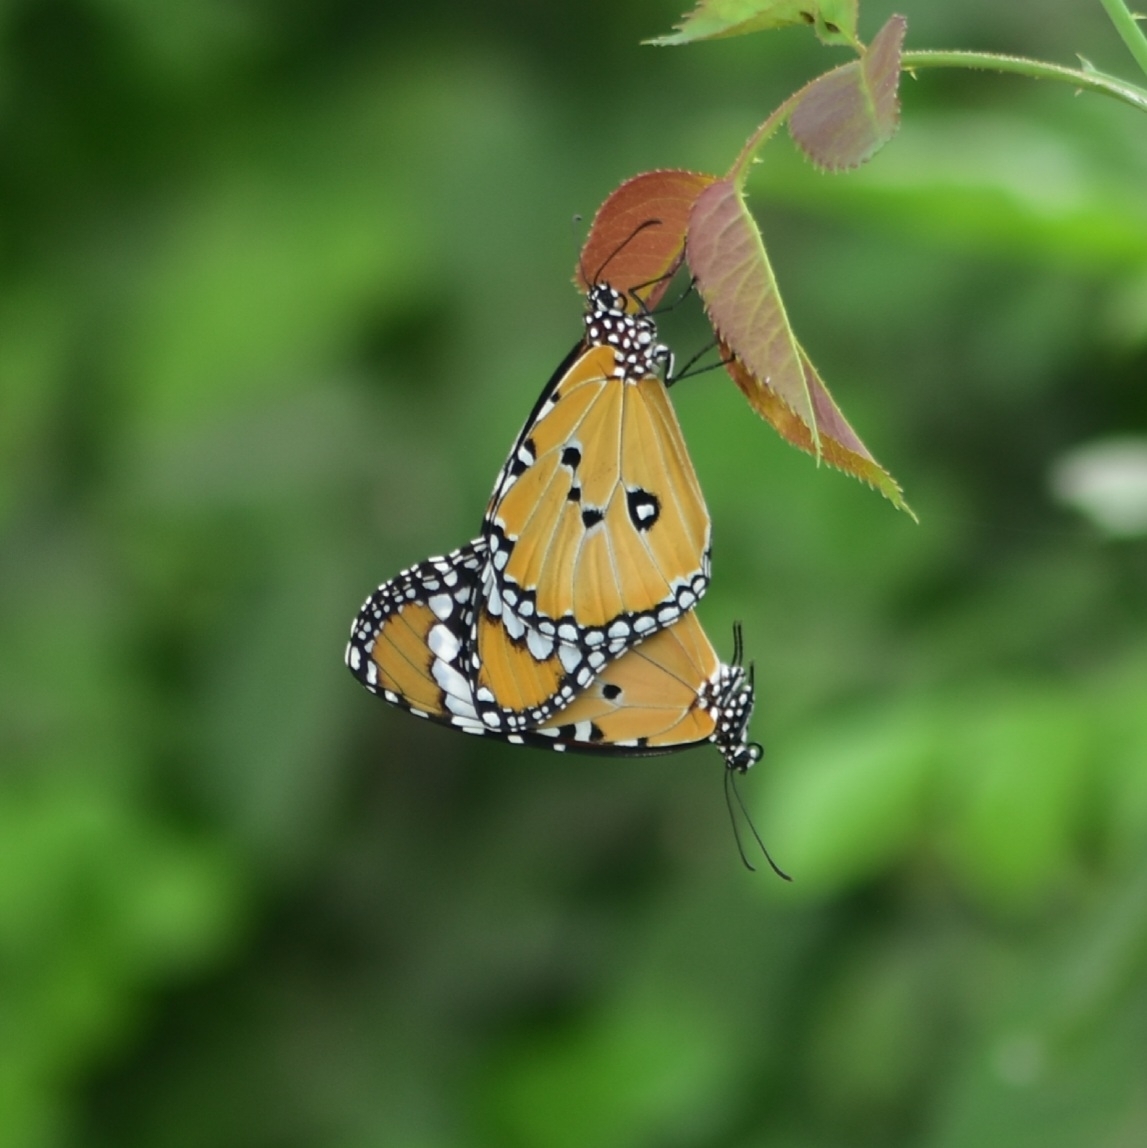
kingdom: Animalia
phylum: Arthropoda
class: Insecta
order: Lepidoptera
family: Nymphalidae
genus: Danaus
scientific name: Danaus chrysippus
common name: Plain tiger
